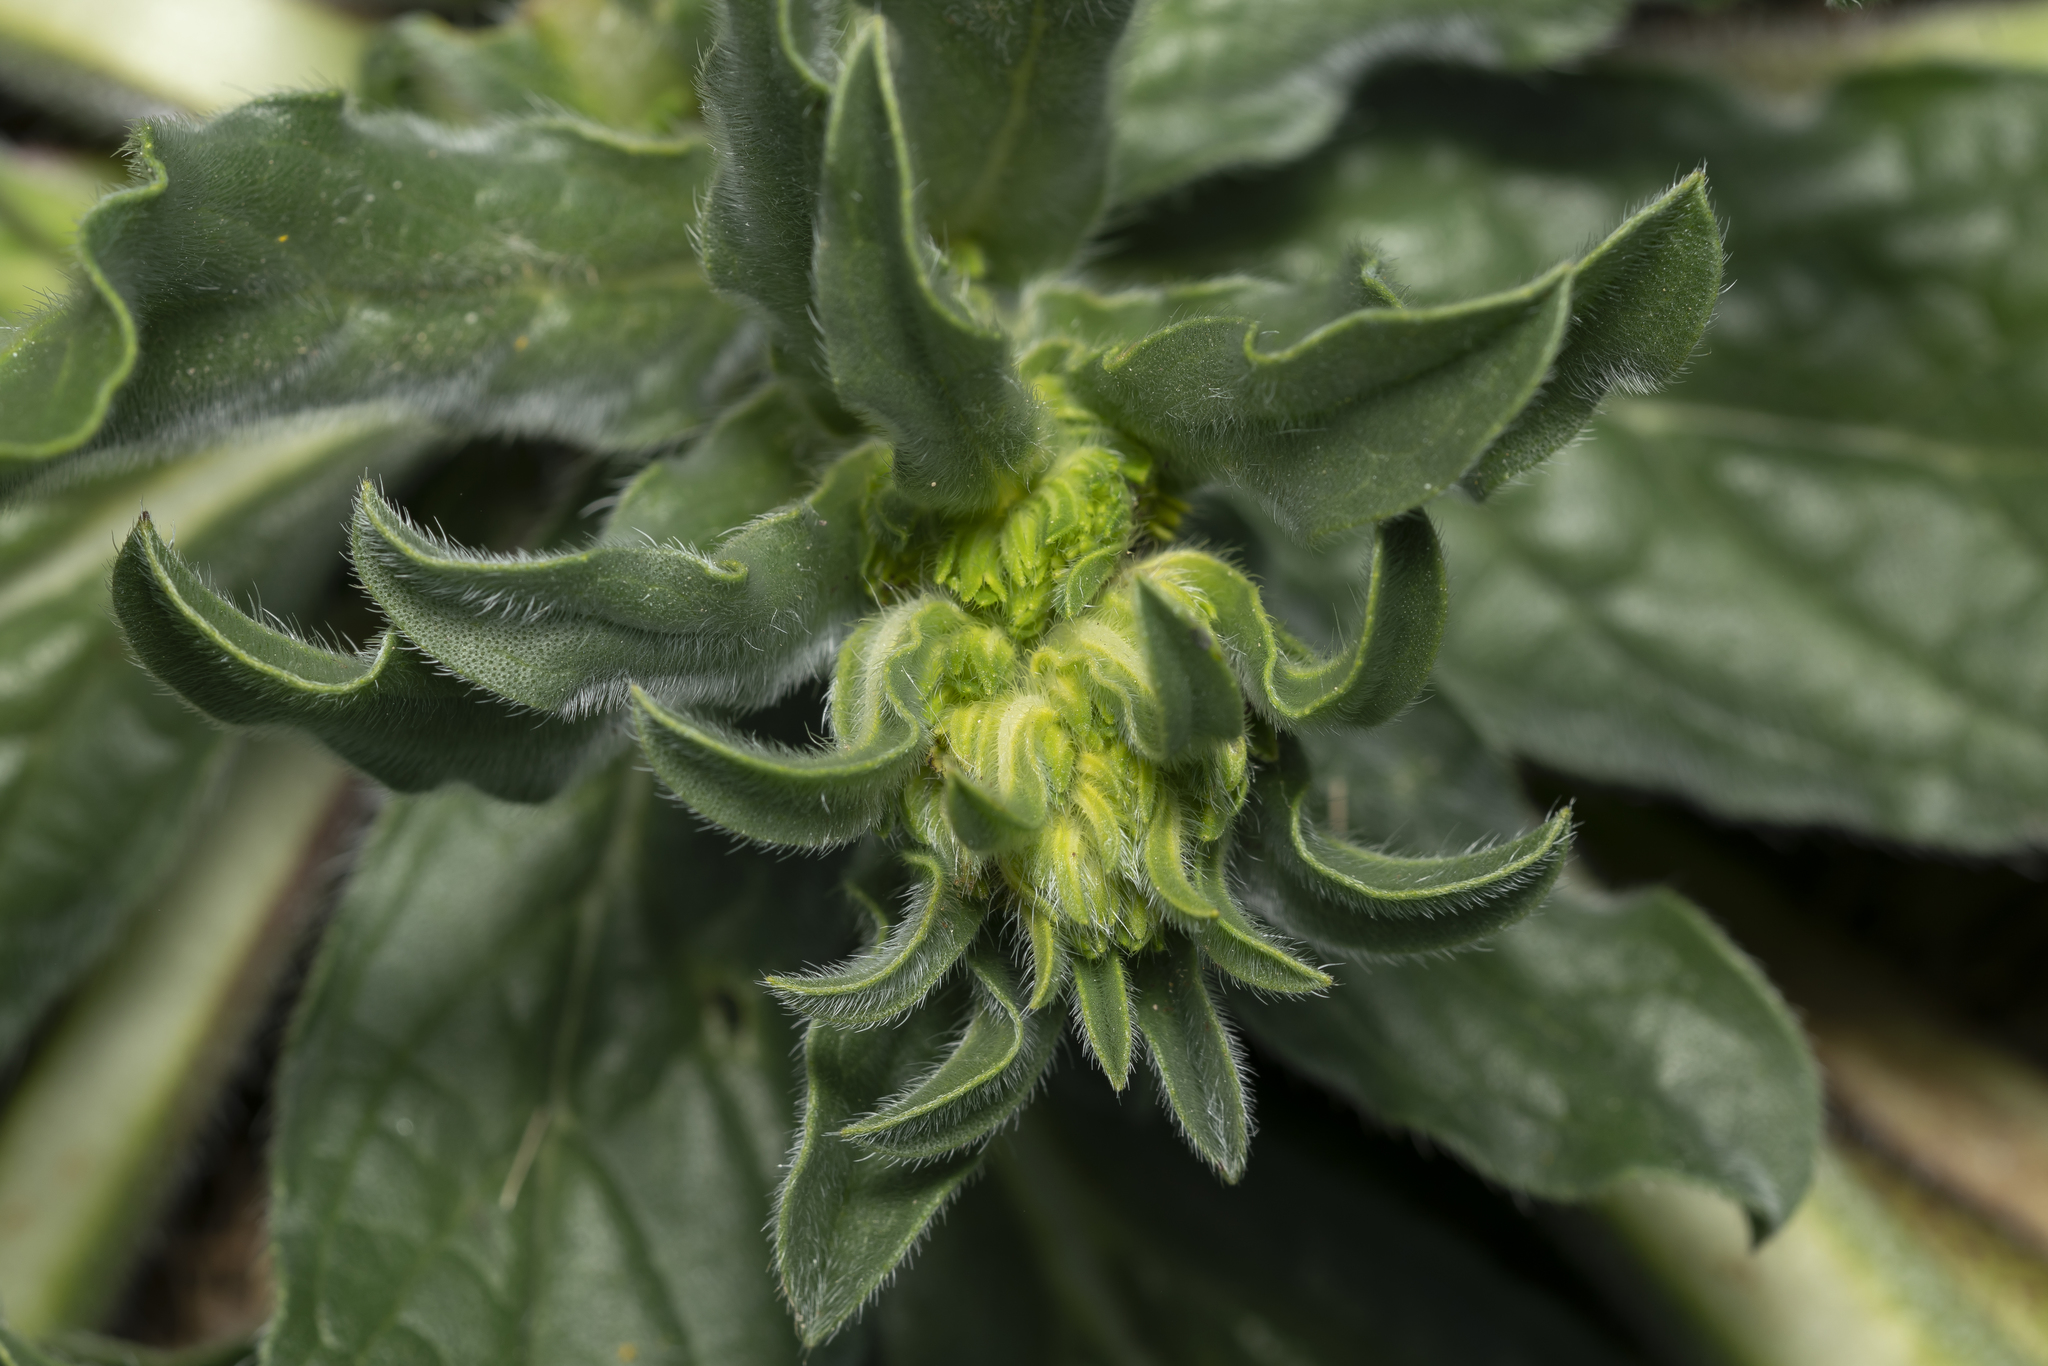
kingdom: Plantae
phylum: Tracheophyta
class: Magnoliopsida
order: Boraginales
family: Boraginaceae
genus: Echium
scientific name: Echium plantagineum
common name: Purple viper's-bugloss
